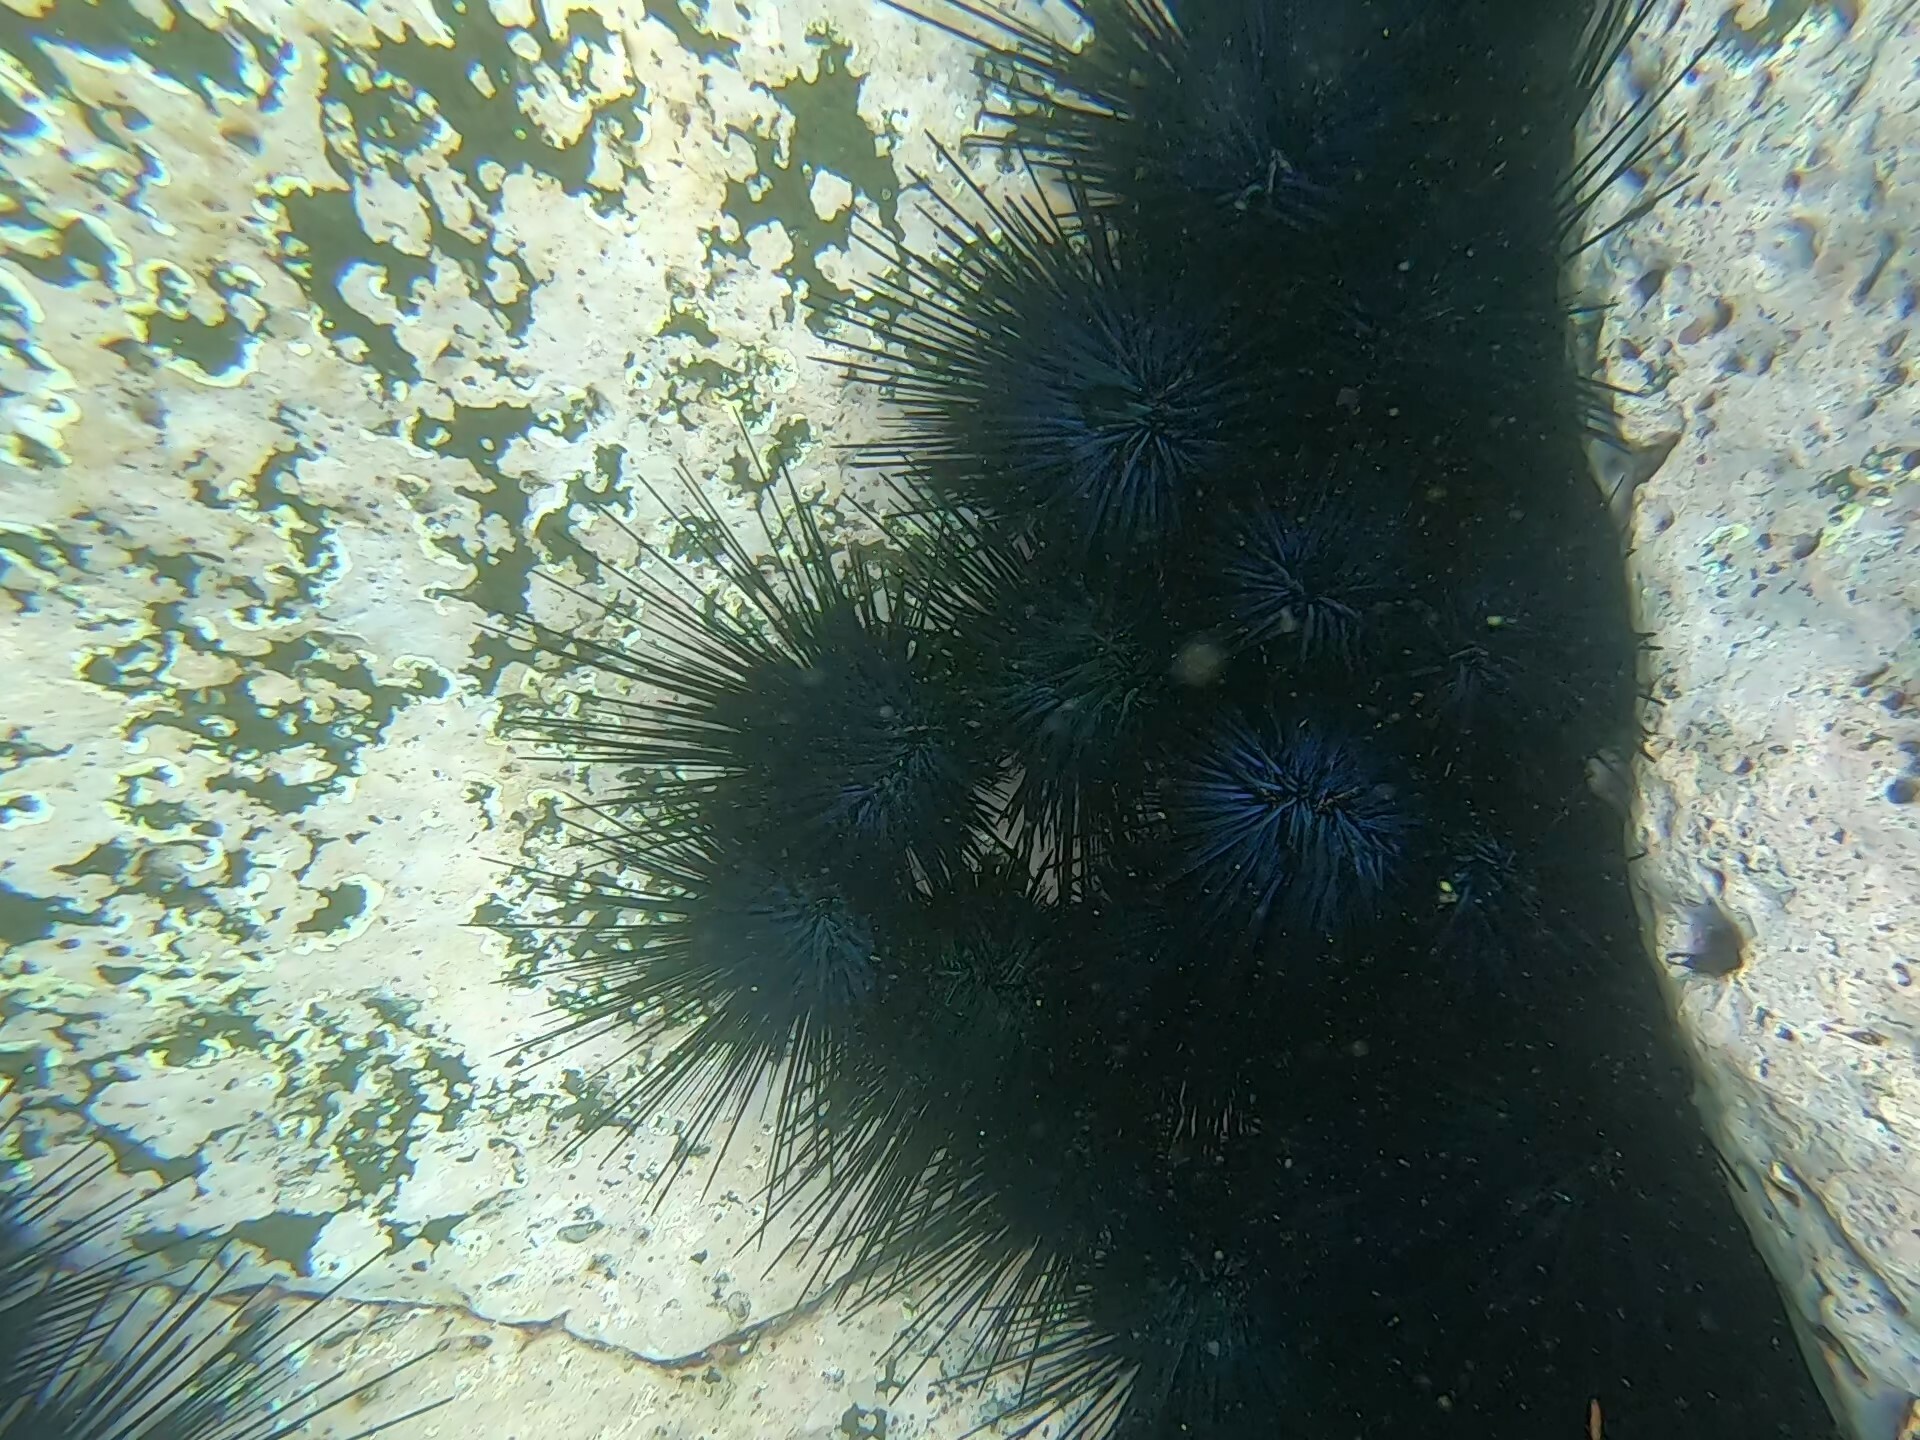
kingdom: Animalia
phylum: Echinodermata
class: Echinoidea
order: Diadematoida
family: Diadematidae
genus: Diadema
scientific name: Diadema mexicanum
